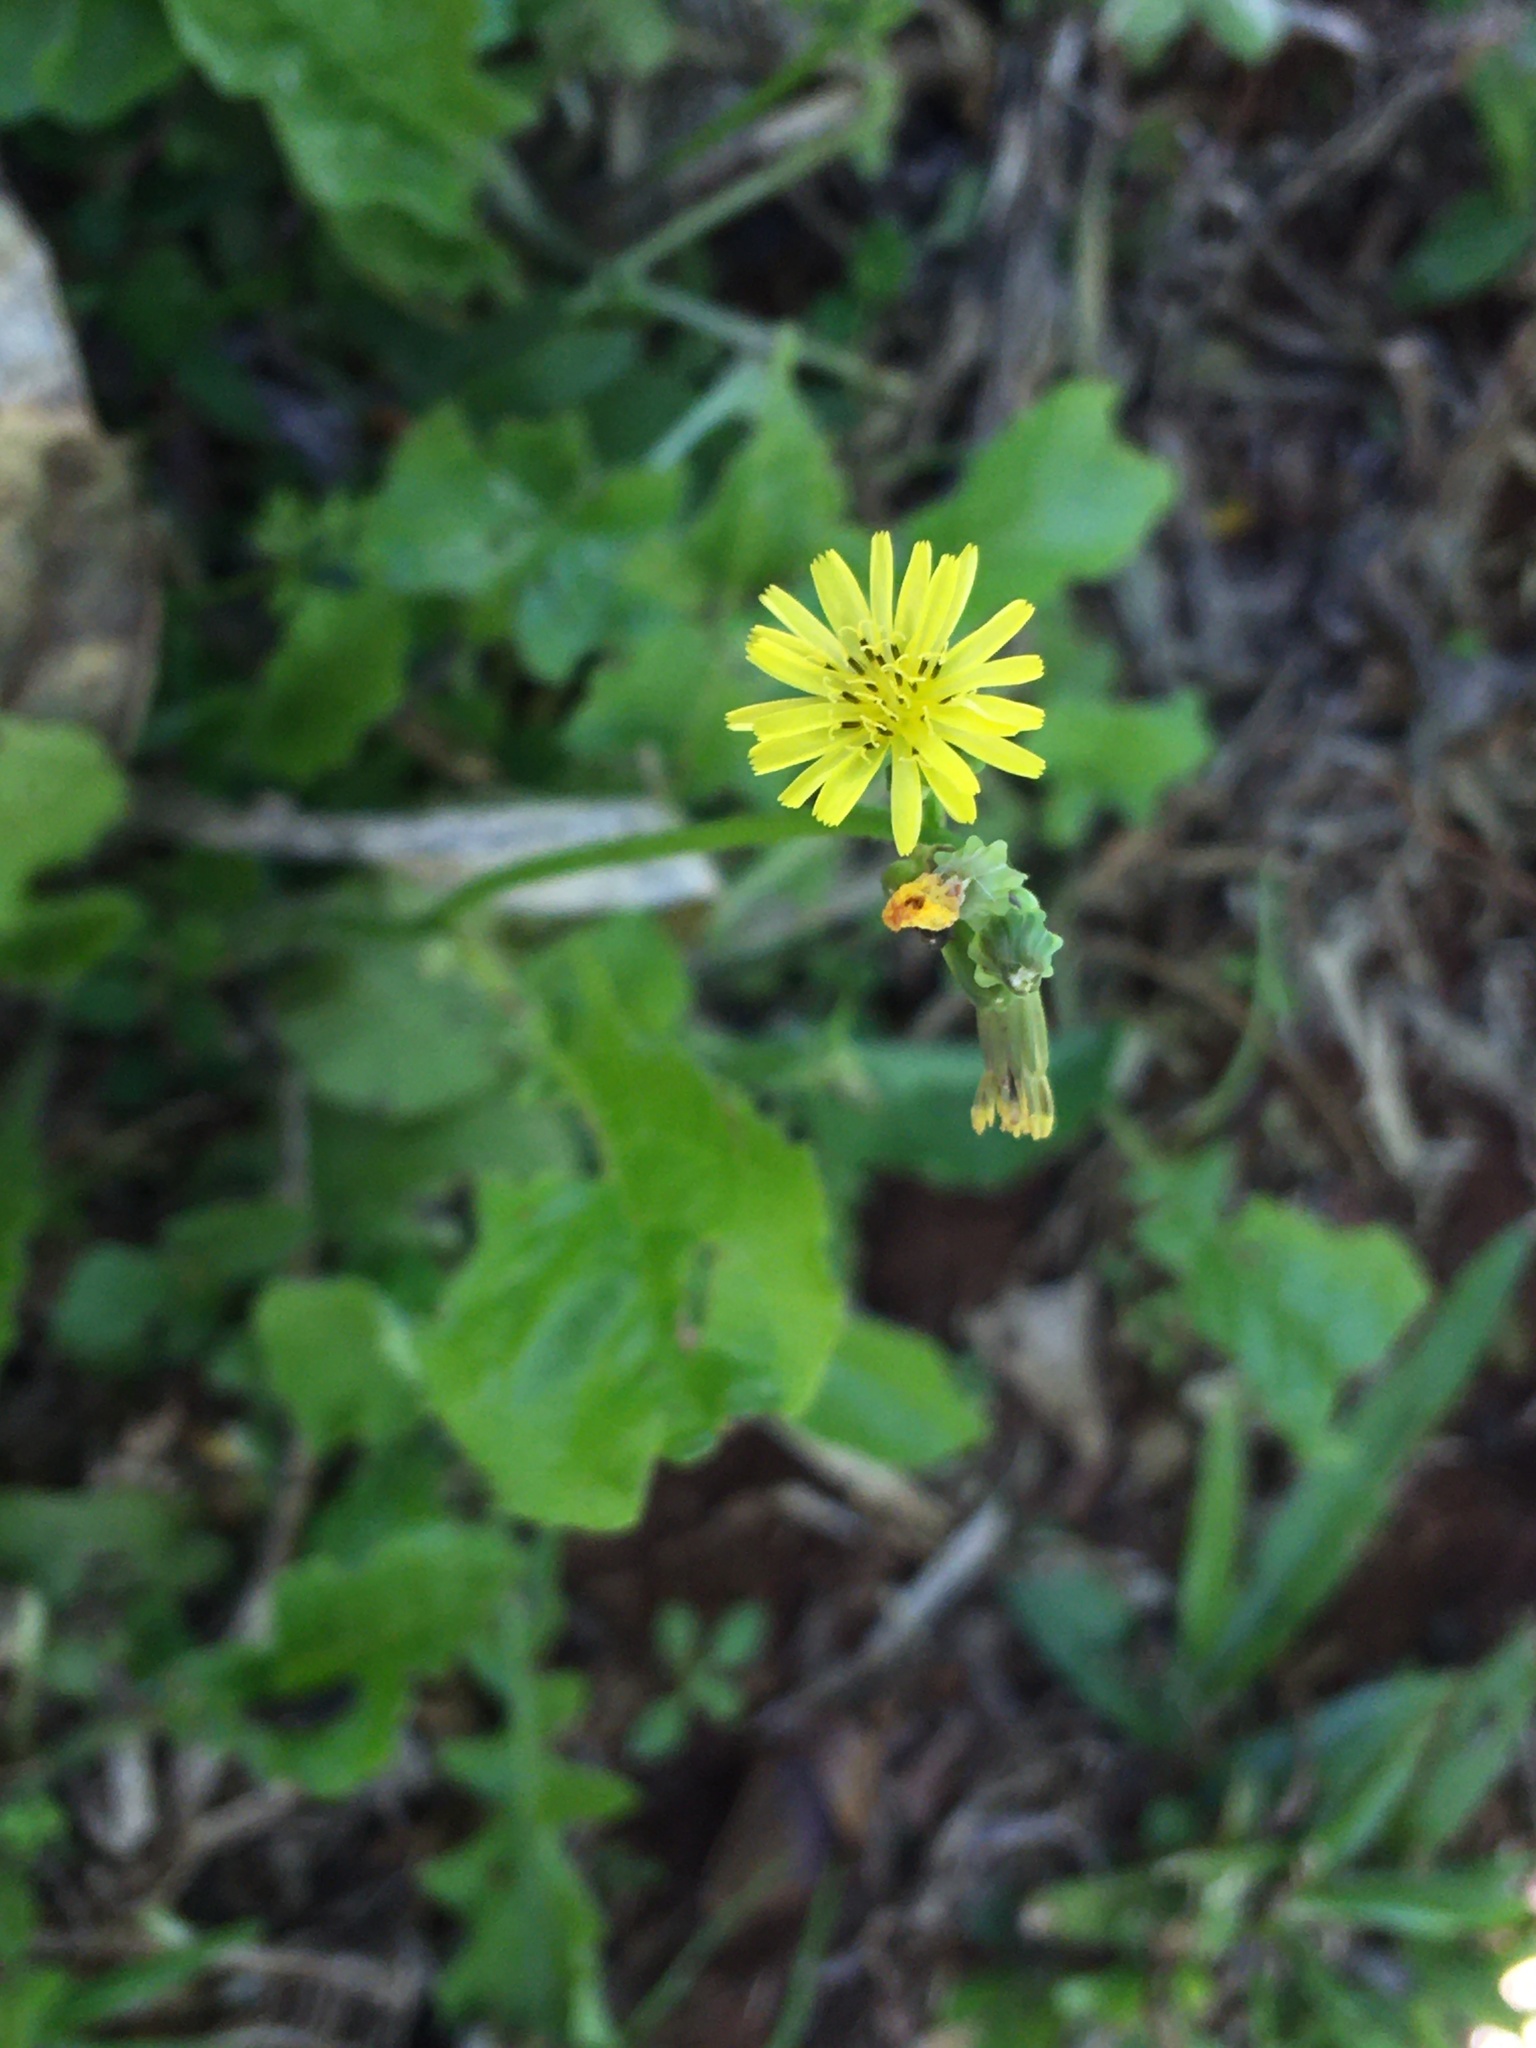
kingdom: Plantae
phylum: Tracheophyta
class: Magnoliopsida
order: Asterales
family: Asteraceae
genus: Youngia
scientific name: Youngia japonica
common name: Oriental false hawksbeard
